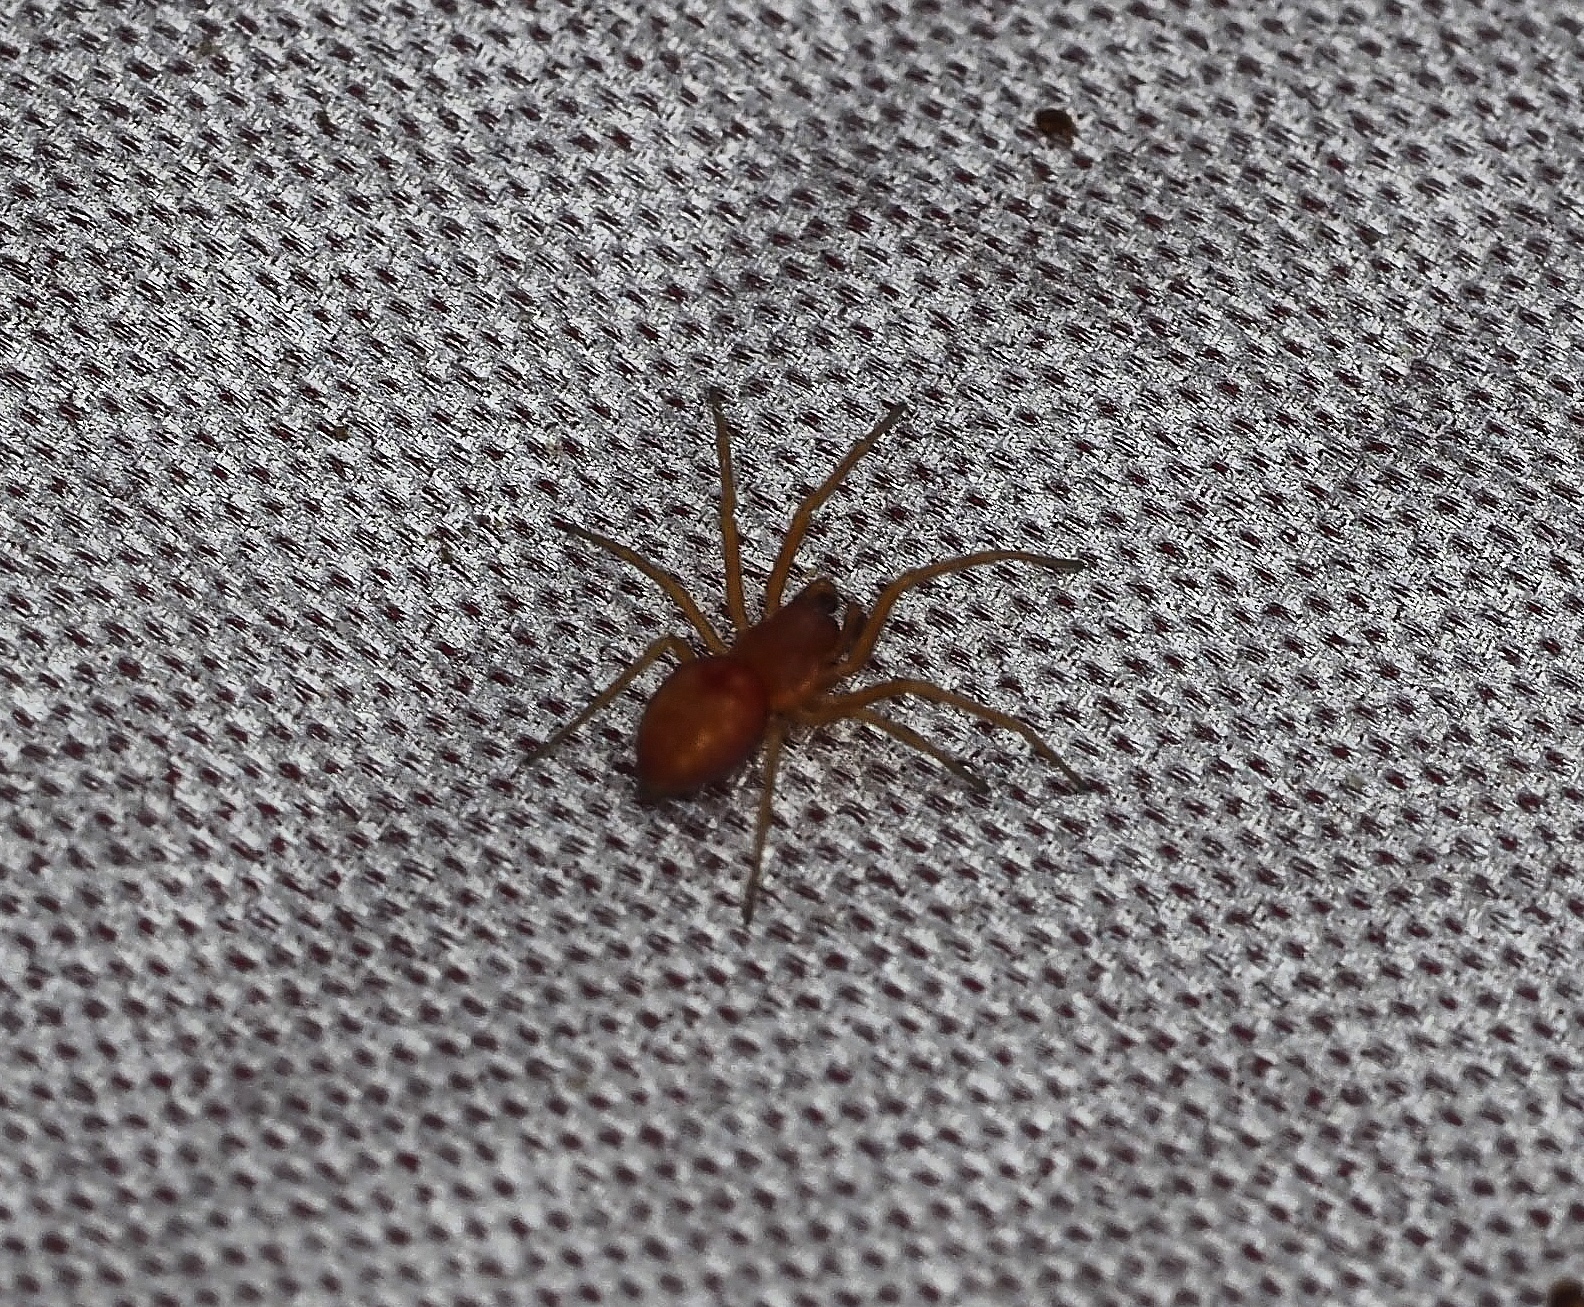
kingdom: Animalia
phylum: Arthropoda
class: Arachnida
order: Araneae
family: Dictynidae
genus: Nigma
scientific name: Nigma puella
